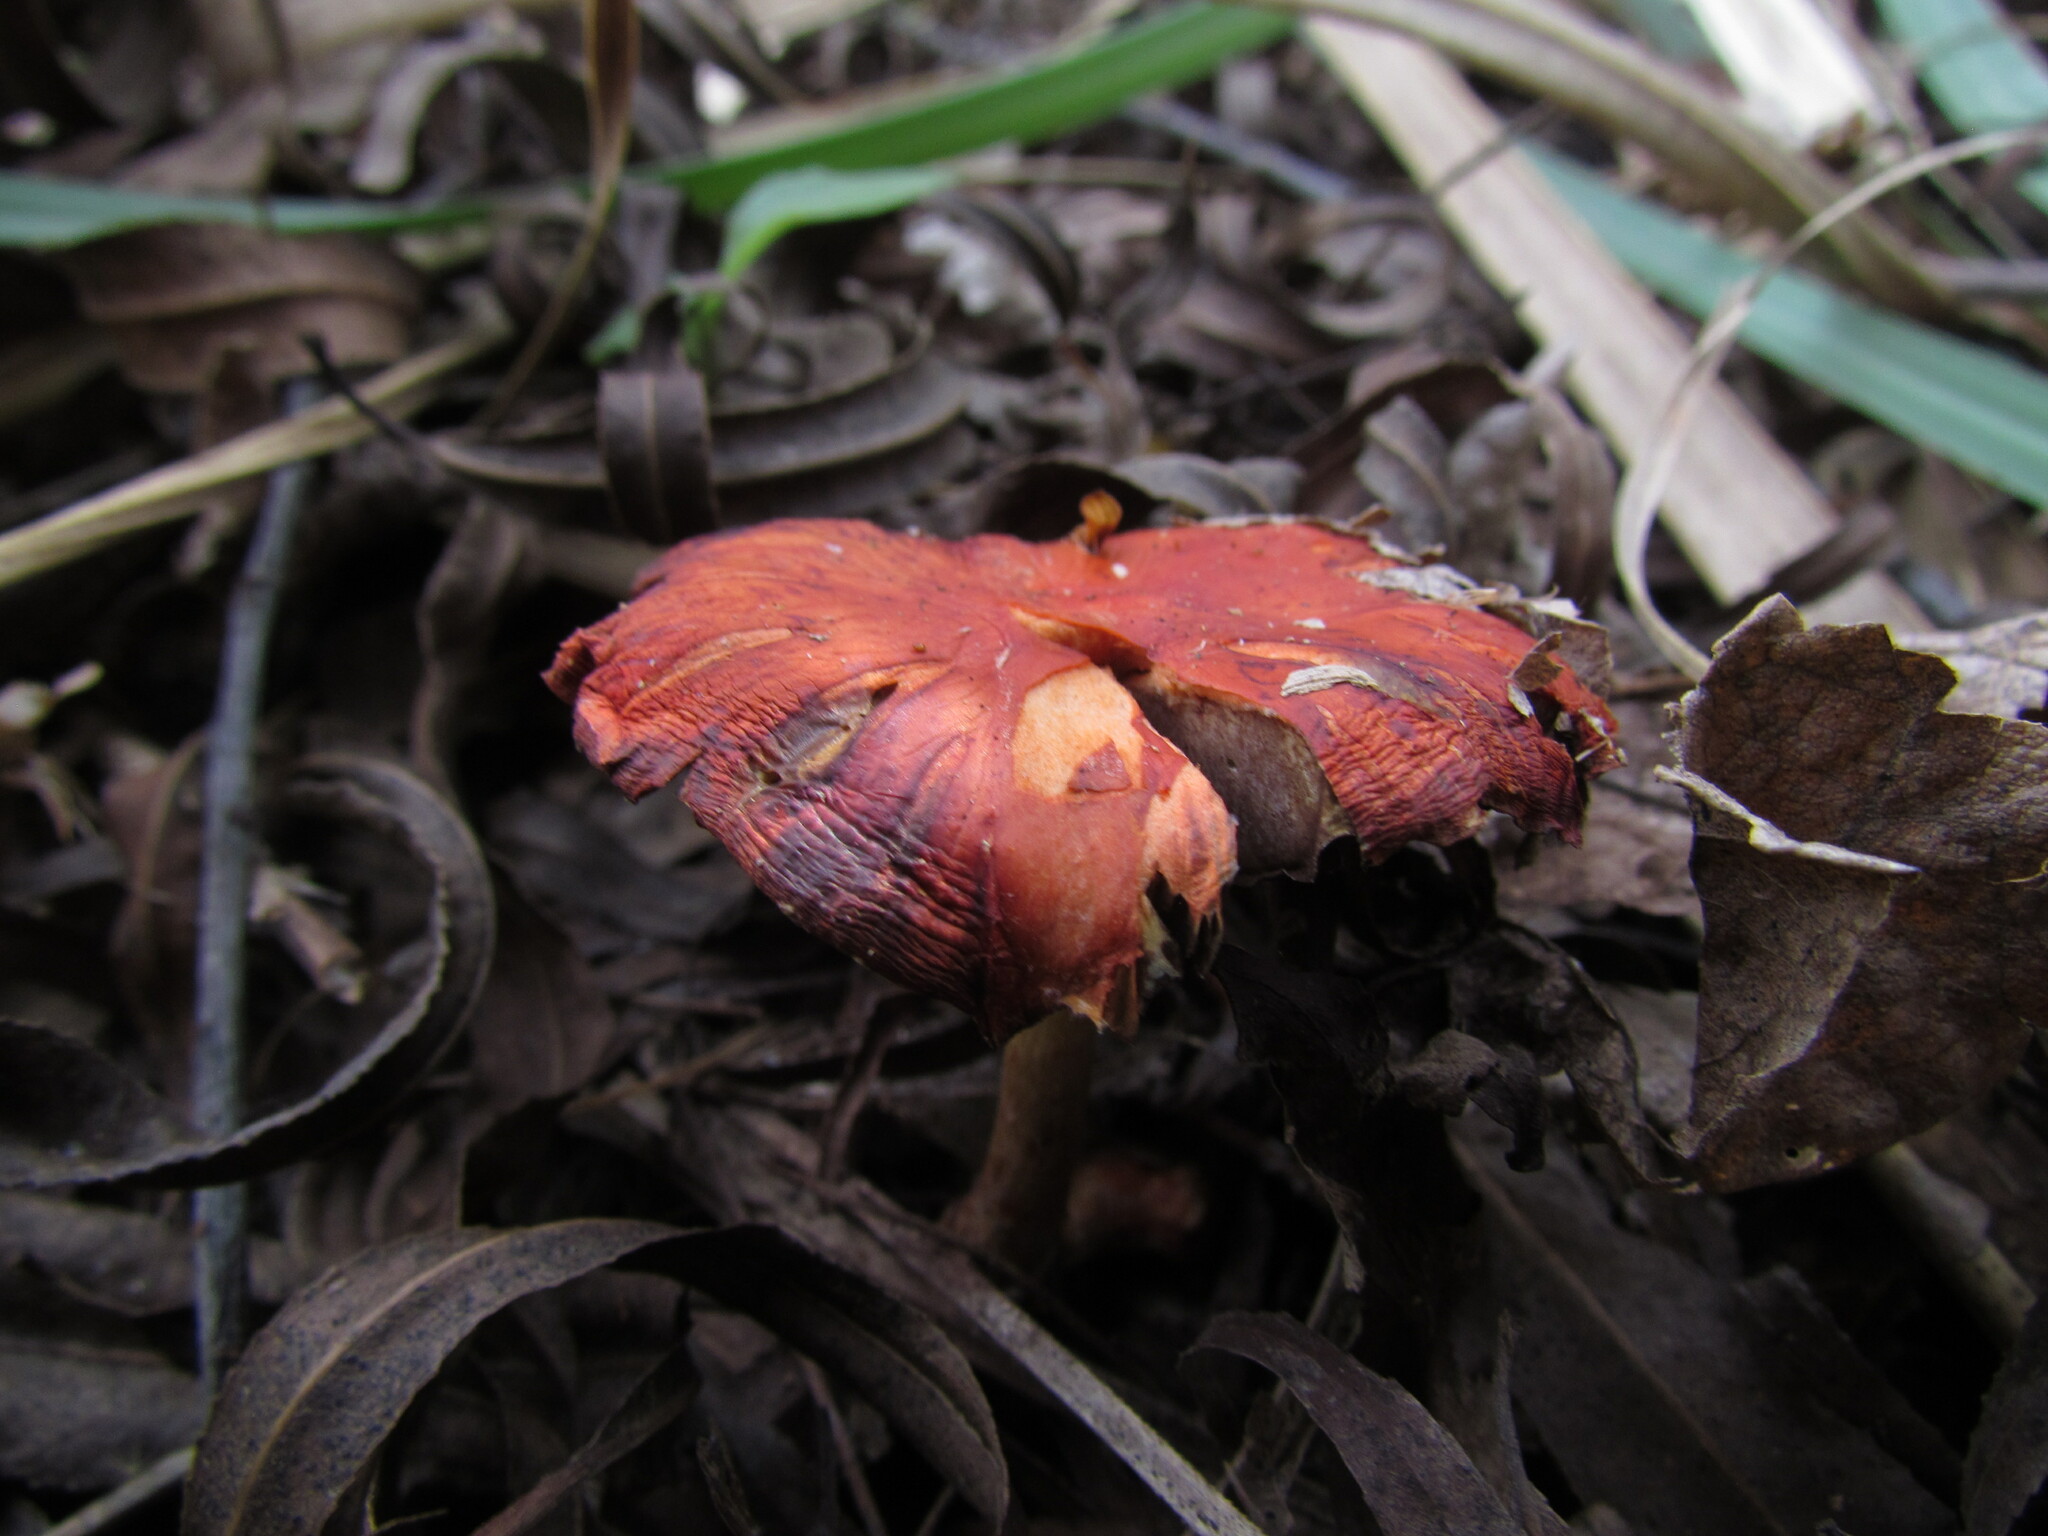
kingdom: Fungi
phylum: Basidiomycota
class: Agaricomycetes
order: Agaricales
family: Strophariaceae
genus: Leratiomyces
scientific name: Leratiomyces ceres
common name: Redlead roundhead
